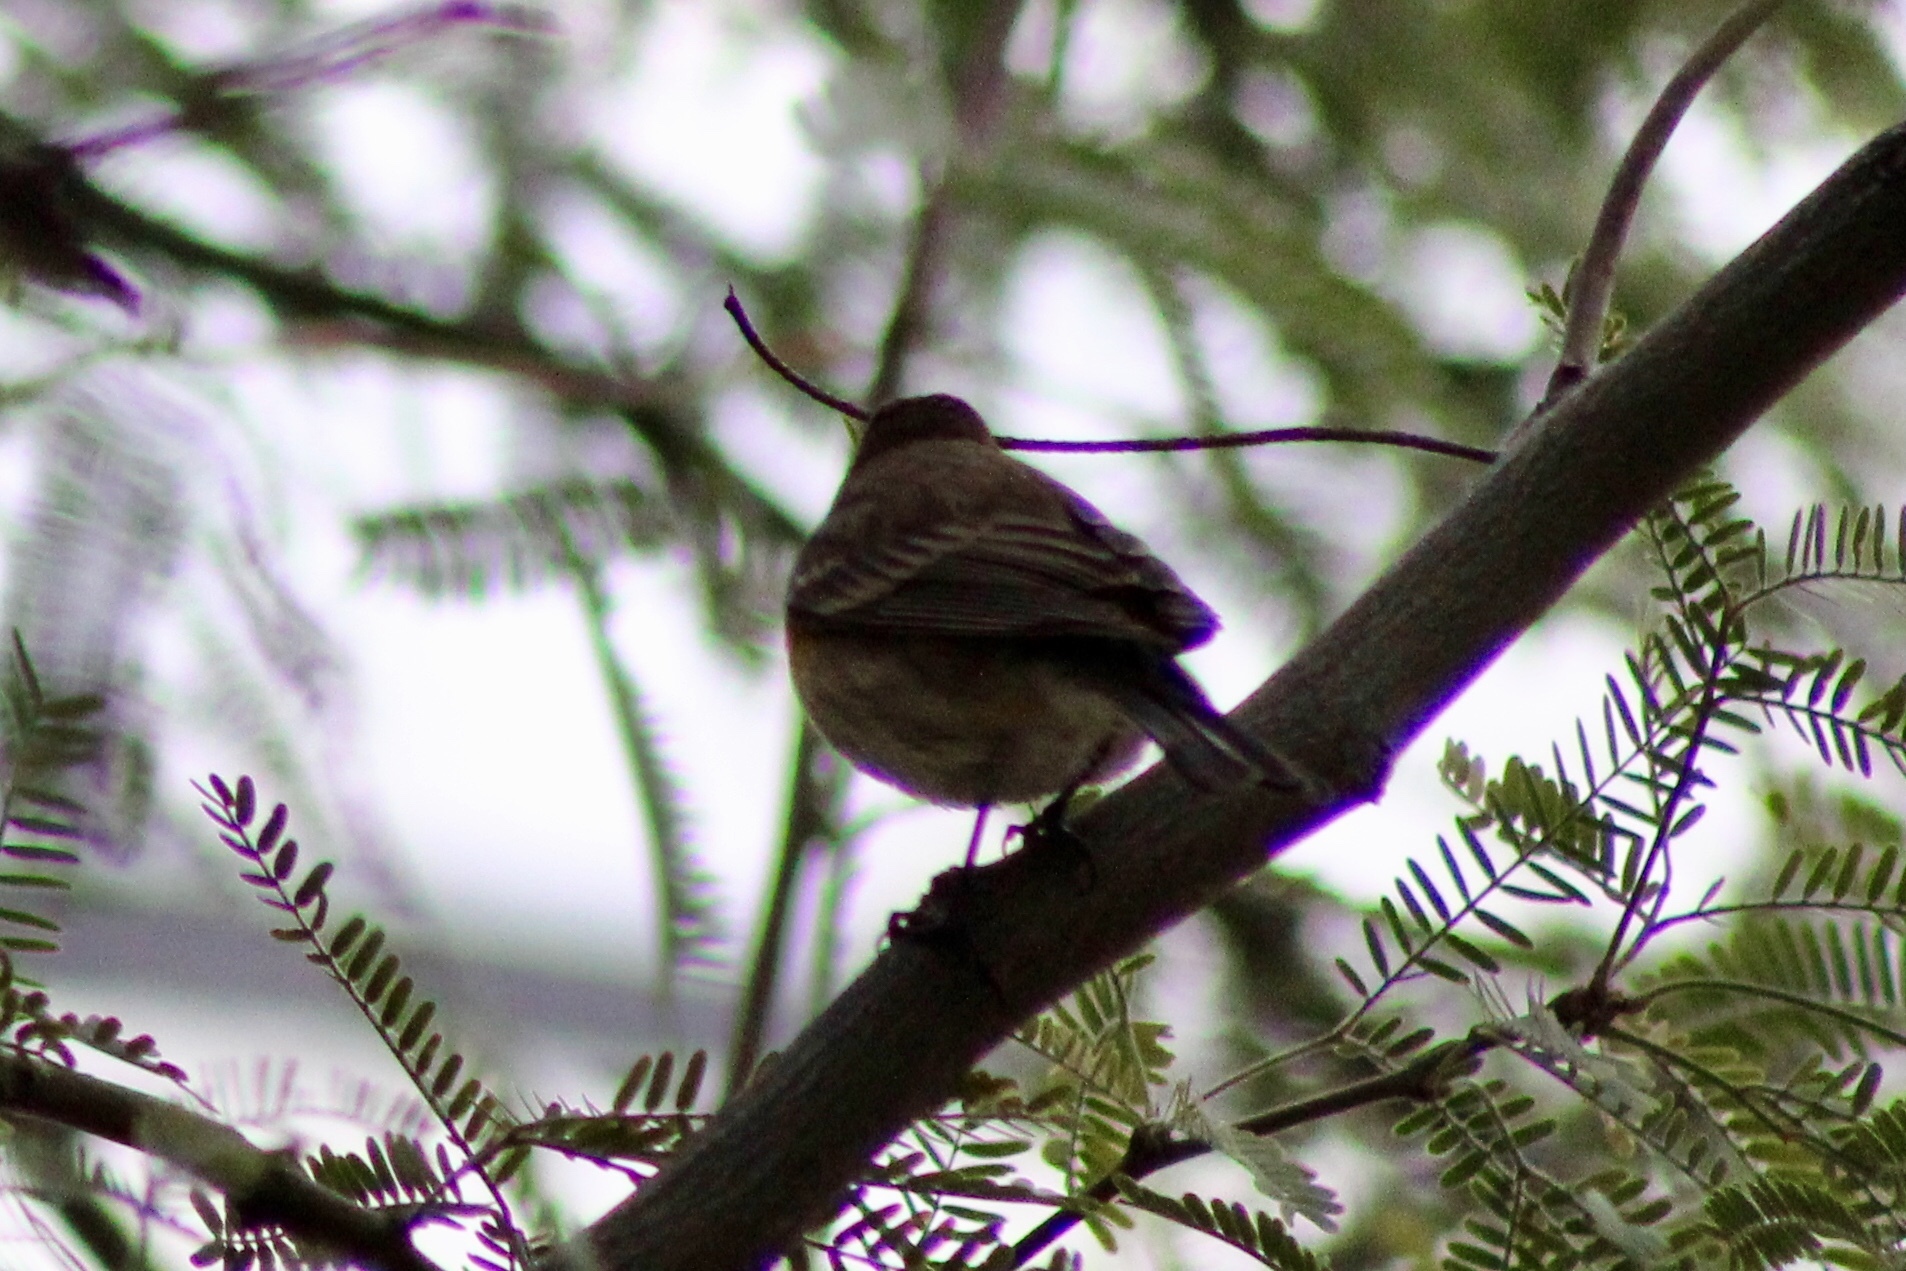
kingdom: Animalia
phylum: Chordata
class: Aves
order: Passeriformes
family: Parulidae
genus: Setophaga
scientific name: Setophaga auduboni
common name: Audubon's warbler
